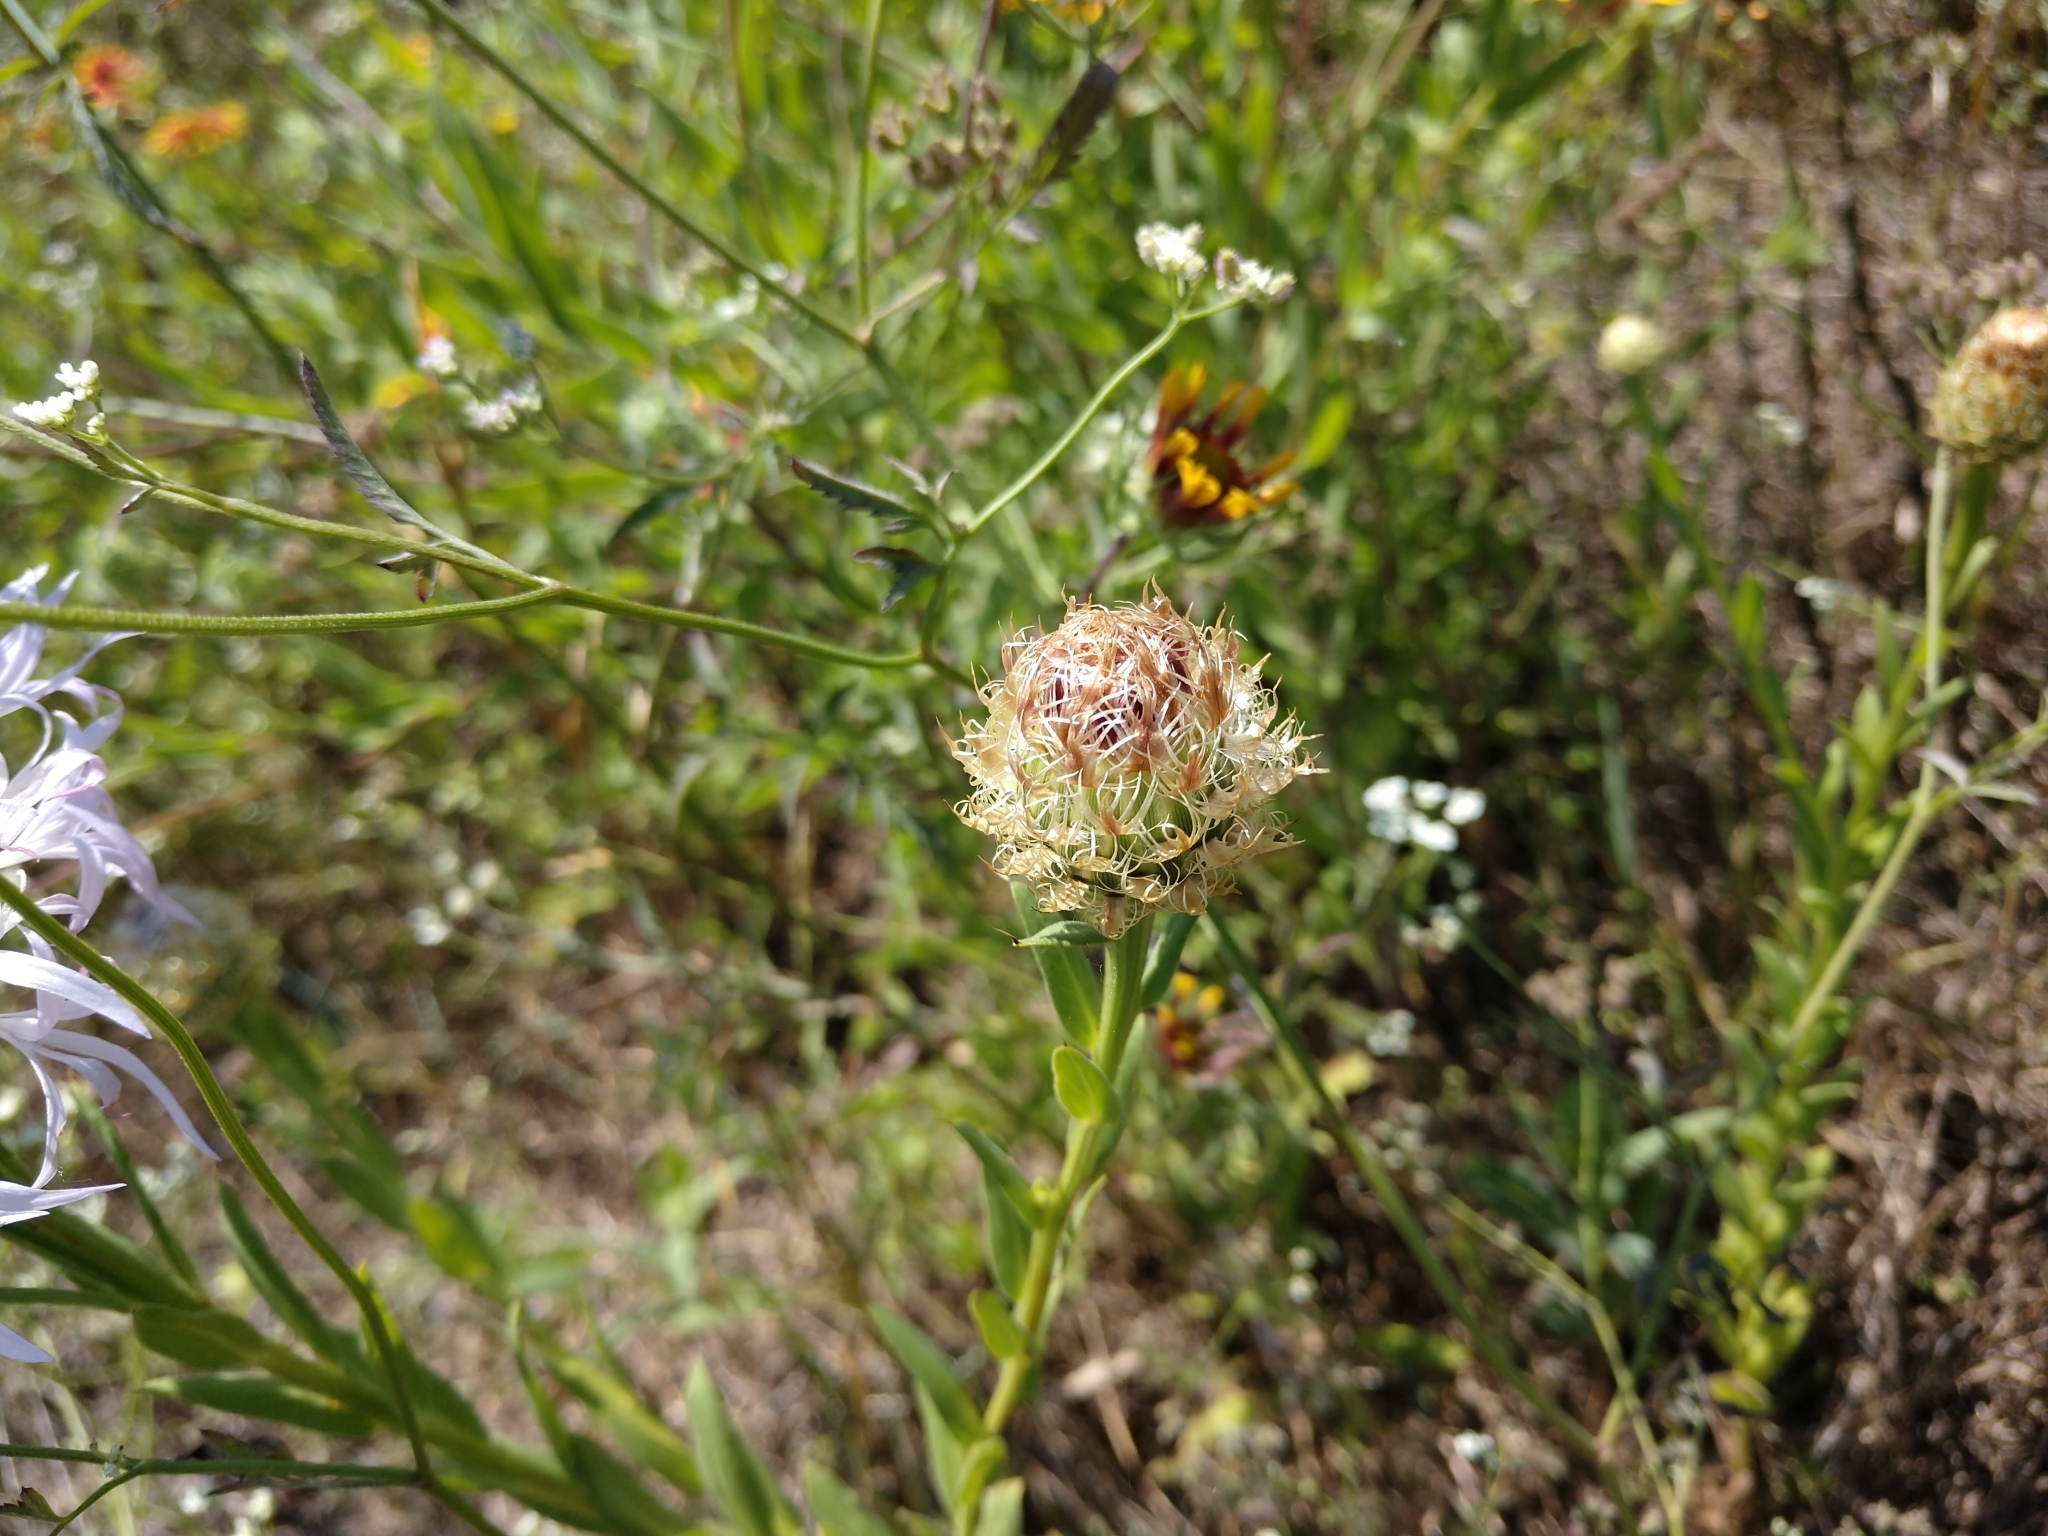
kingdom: Plantae
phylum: Tracheophyta
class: Magnoliopsida
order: Asterales
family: Asteraceae
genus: Plectocephalus
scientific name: Plectocephalus americanus
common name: American basket-flower
